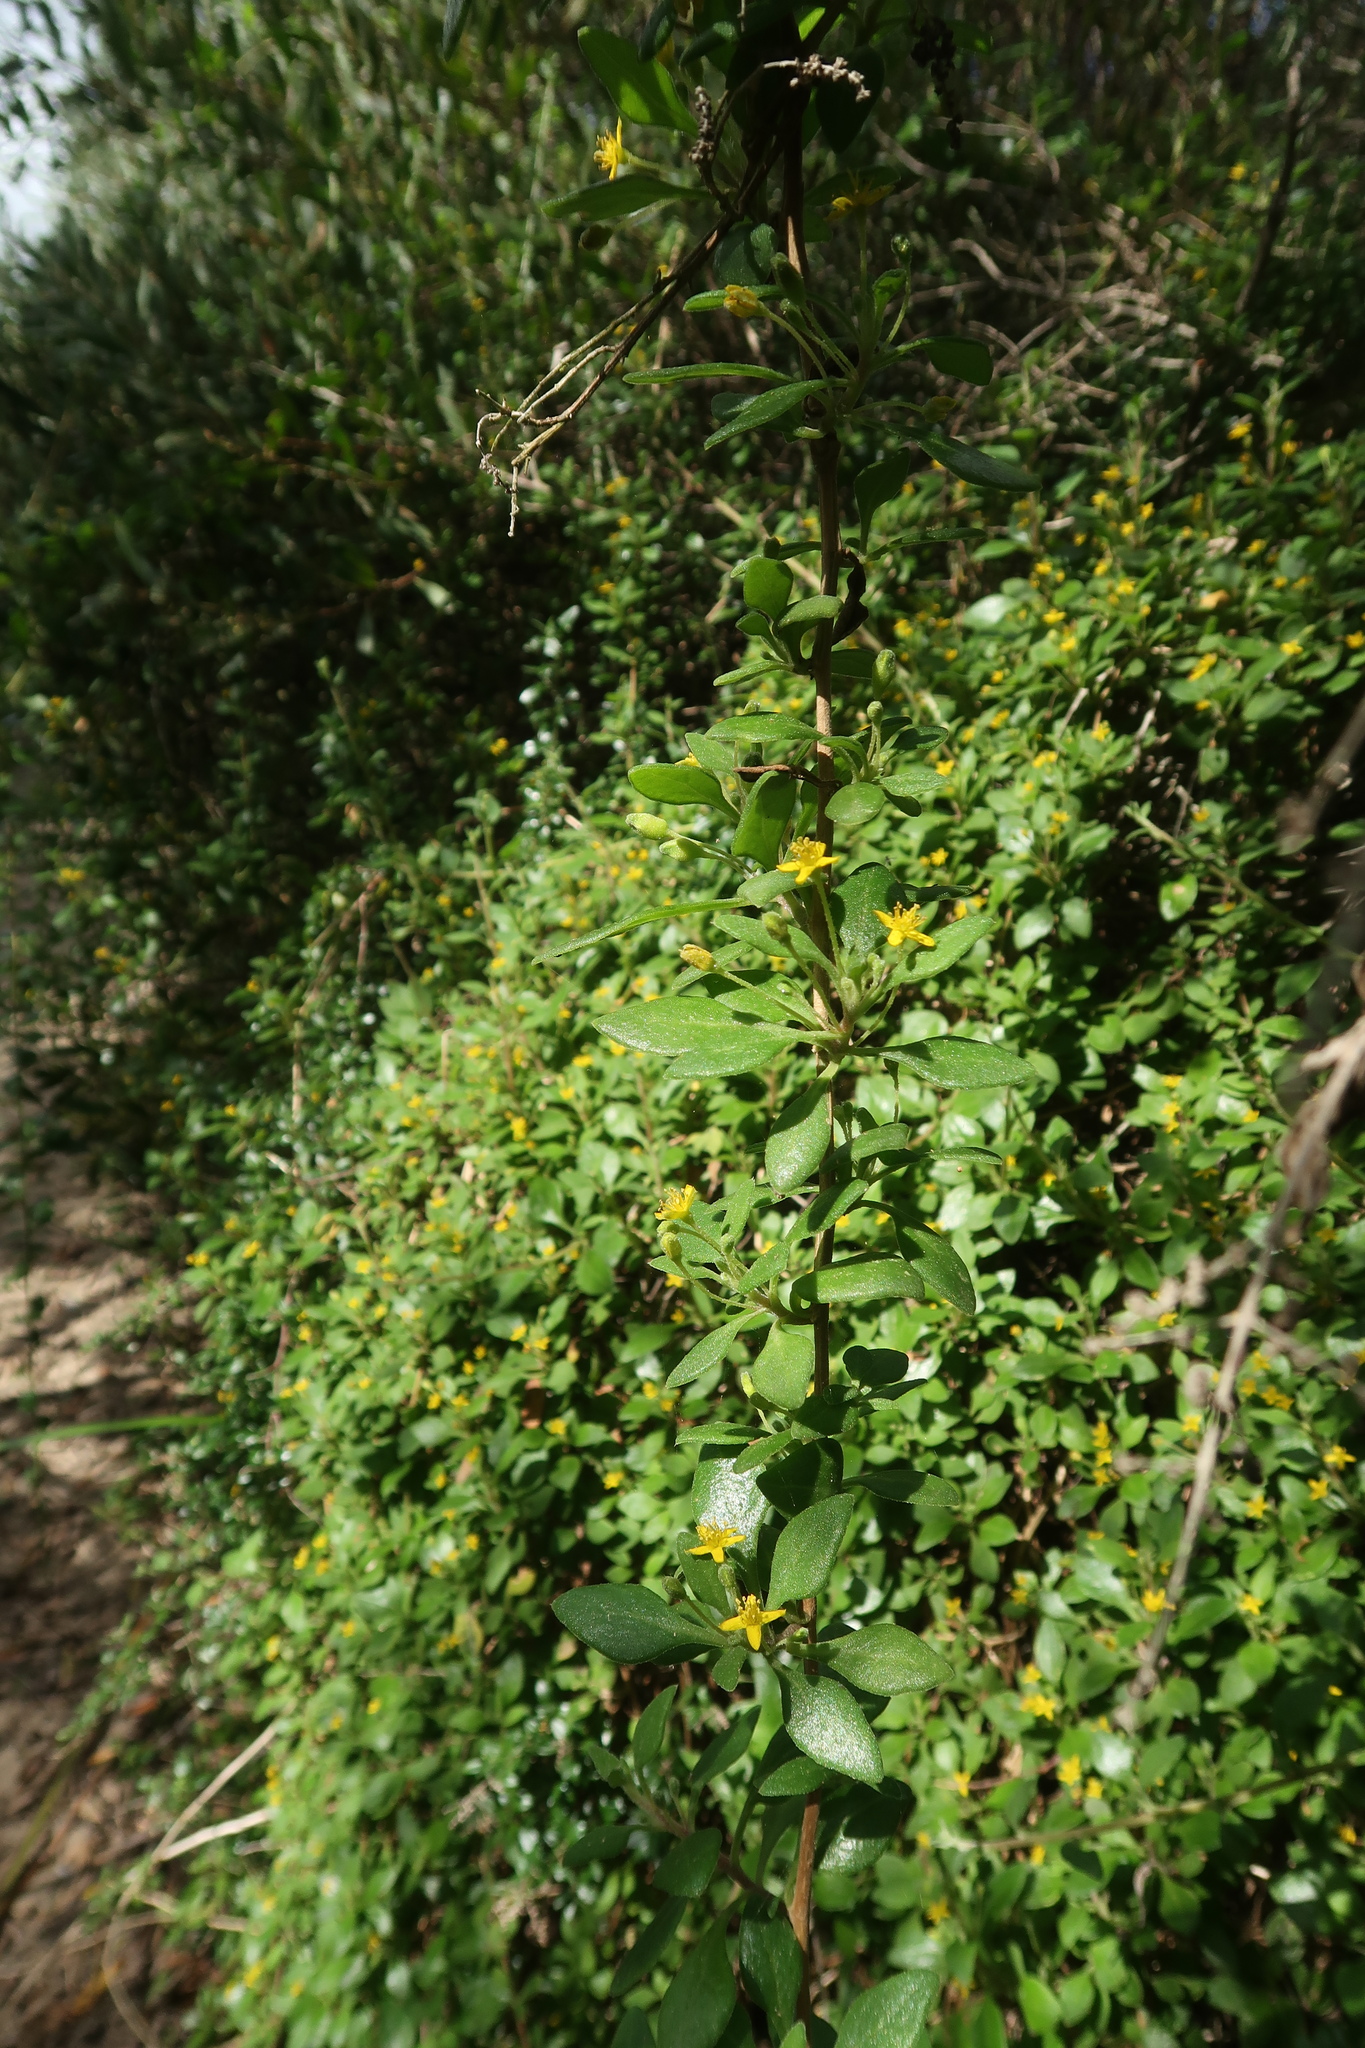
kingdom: Plantae
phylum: Tracheophyta
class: Magnoliopsida
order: Caryophyllales
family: Aizoaceae
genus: Tetragonia
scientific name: Tetragonia implexicoma
